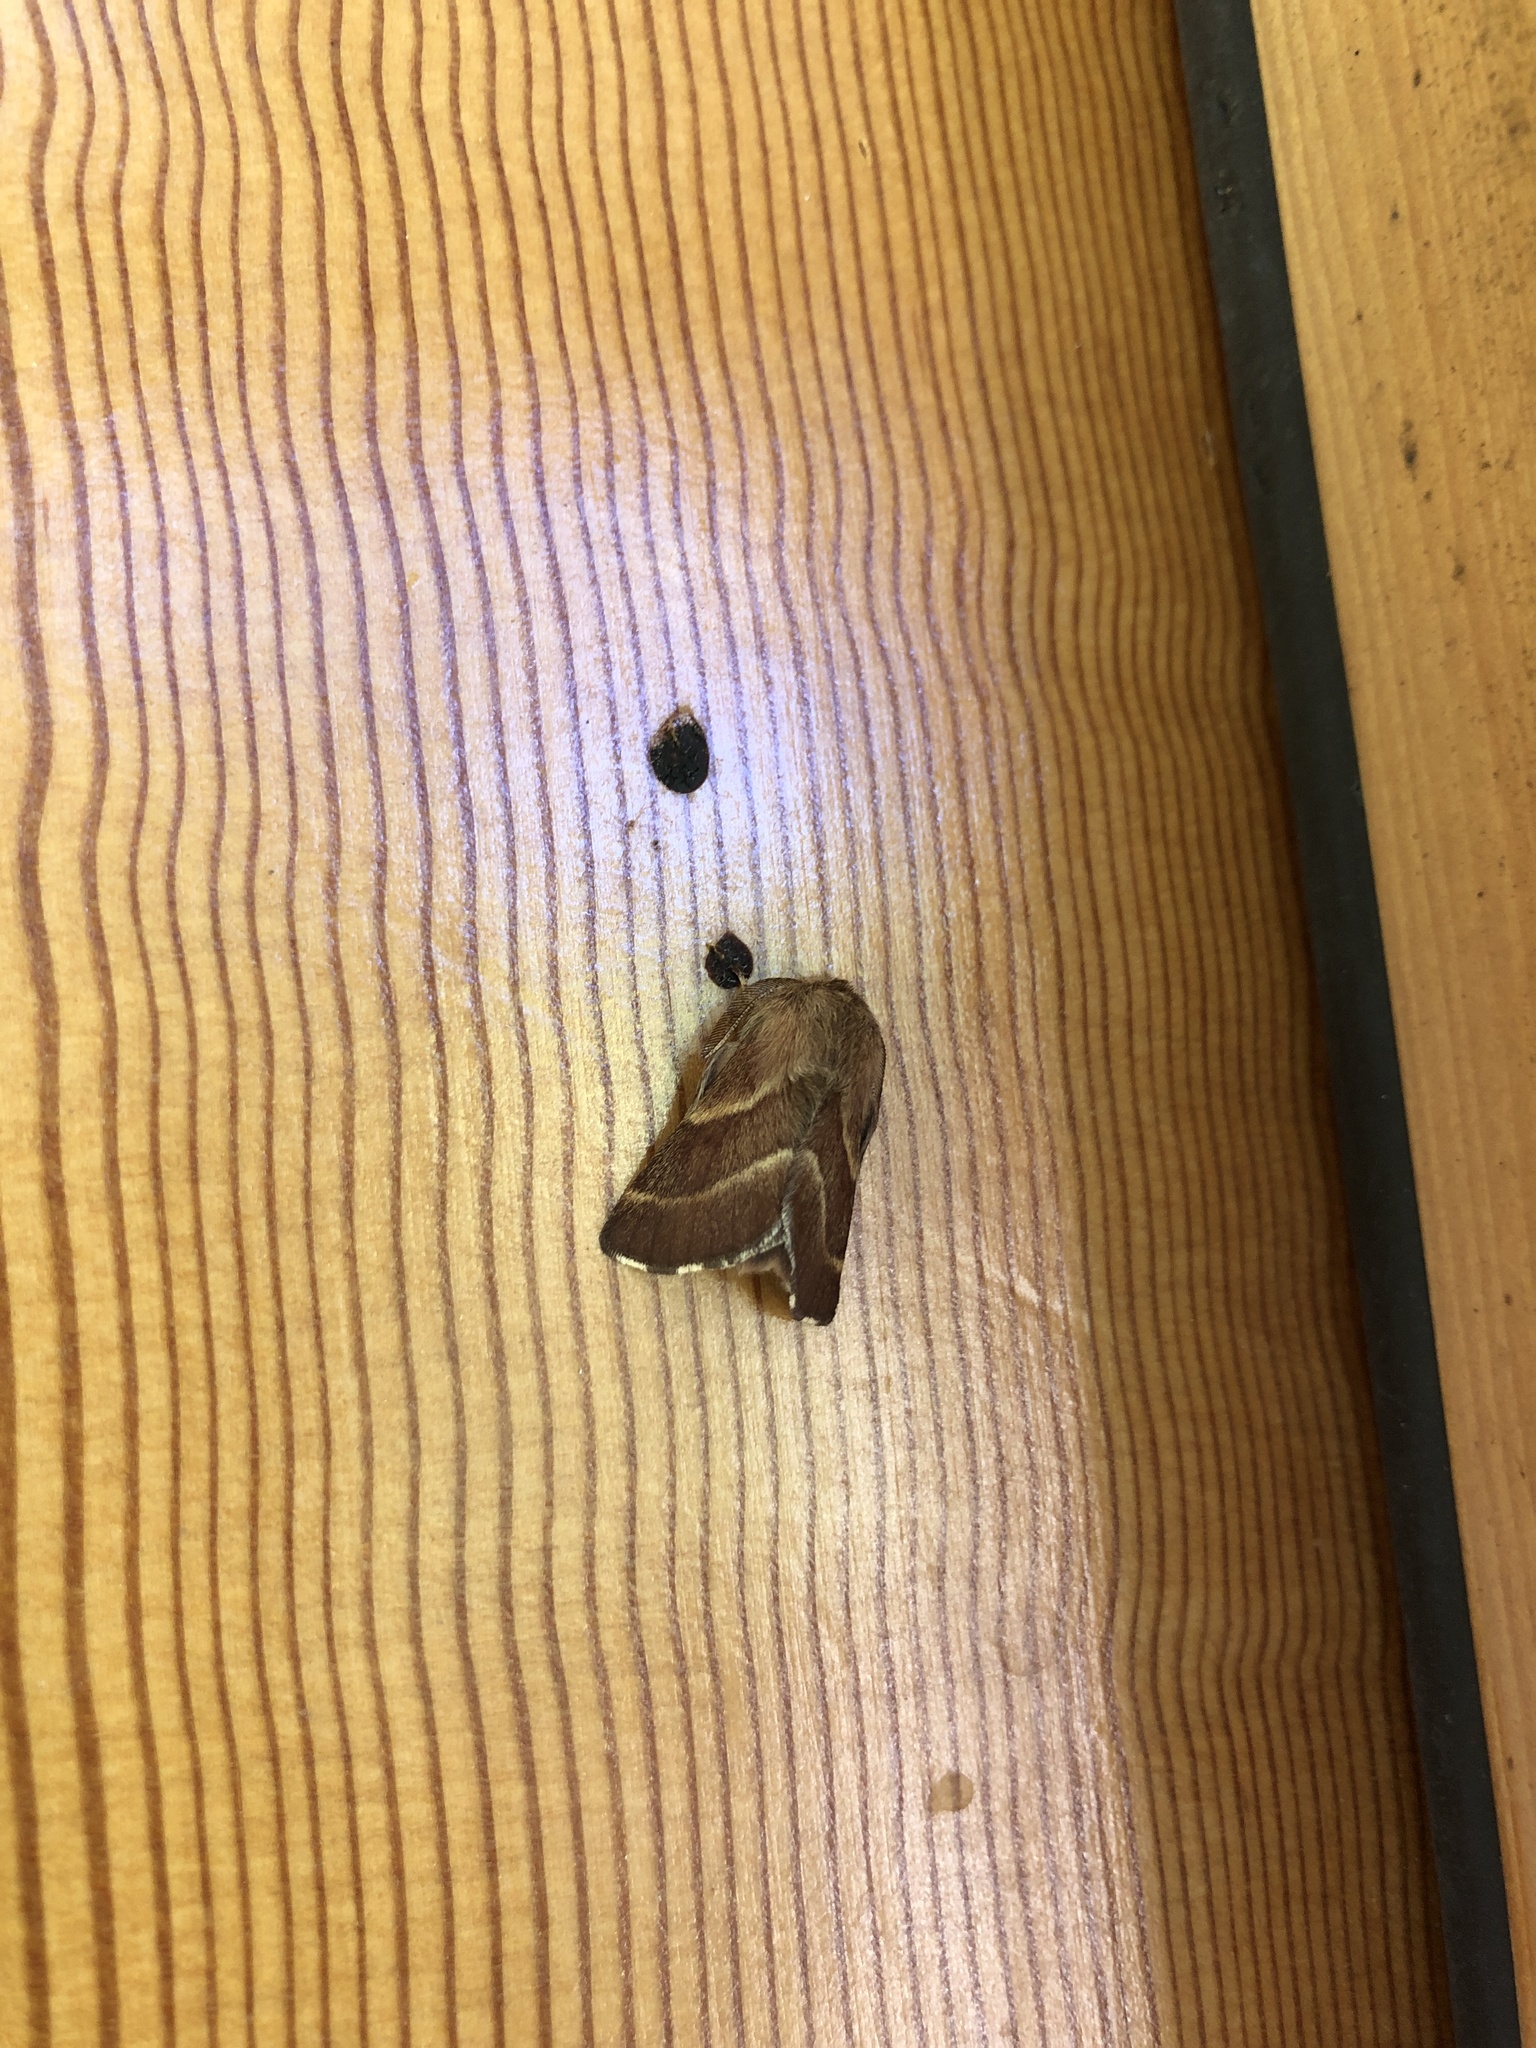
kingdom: Animalia
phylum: Arthropoda
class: Insecta
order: Lepidoptera
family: Lasiocampidae
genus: Malacosoma
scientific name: Malacosoma californica
